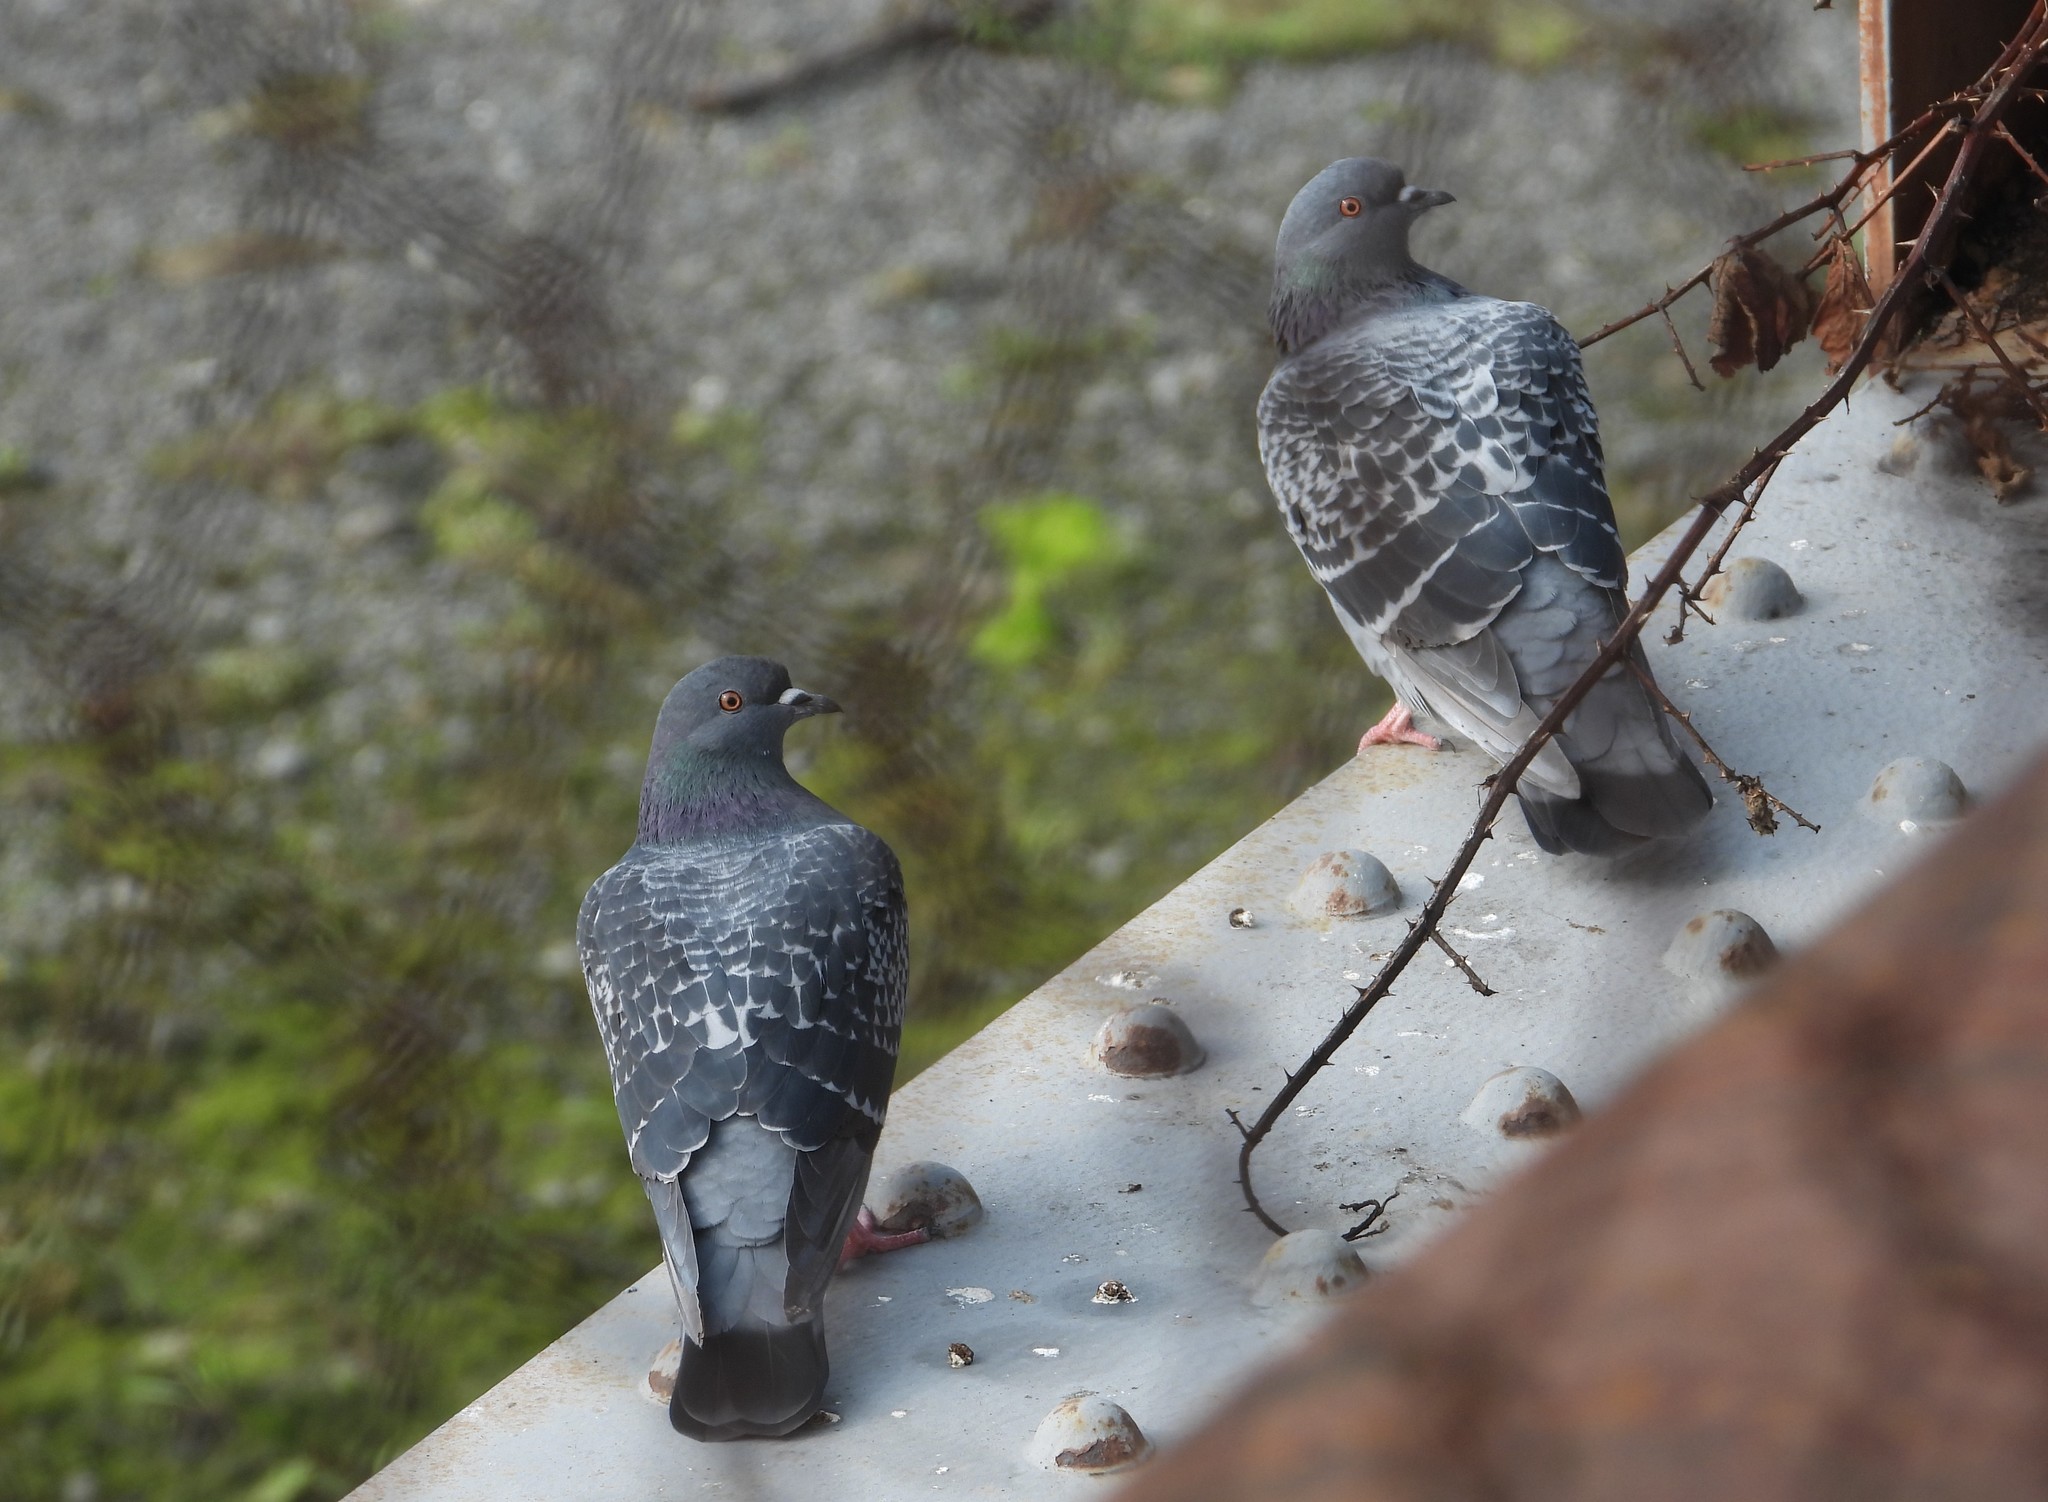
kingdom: Animalia
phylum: Chordata
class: Aves
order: Columbiformes
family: Columbidae
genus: Columba
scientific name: Columba livia
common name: Rock pigeon
